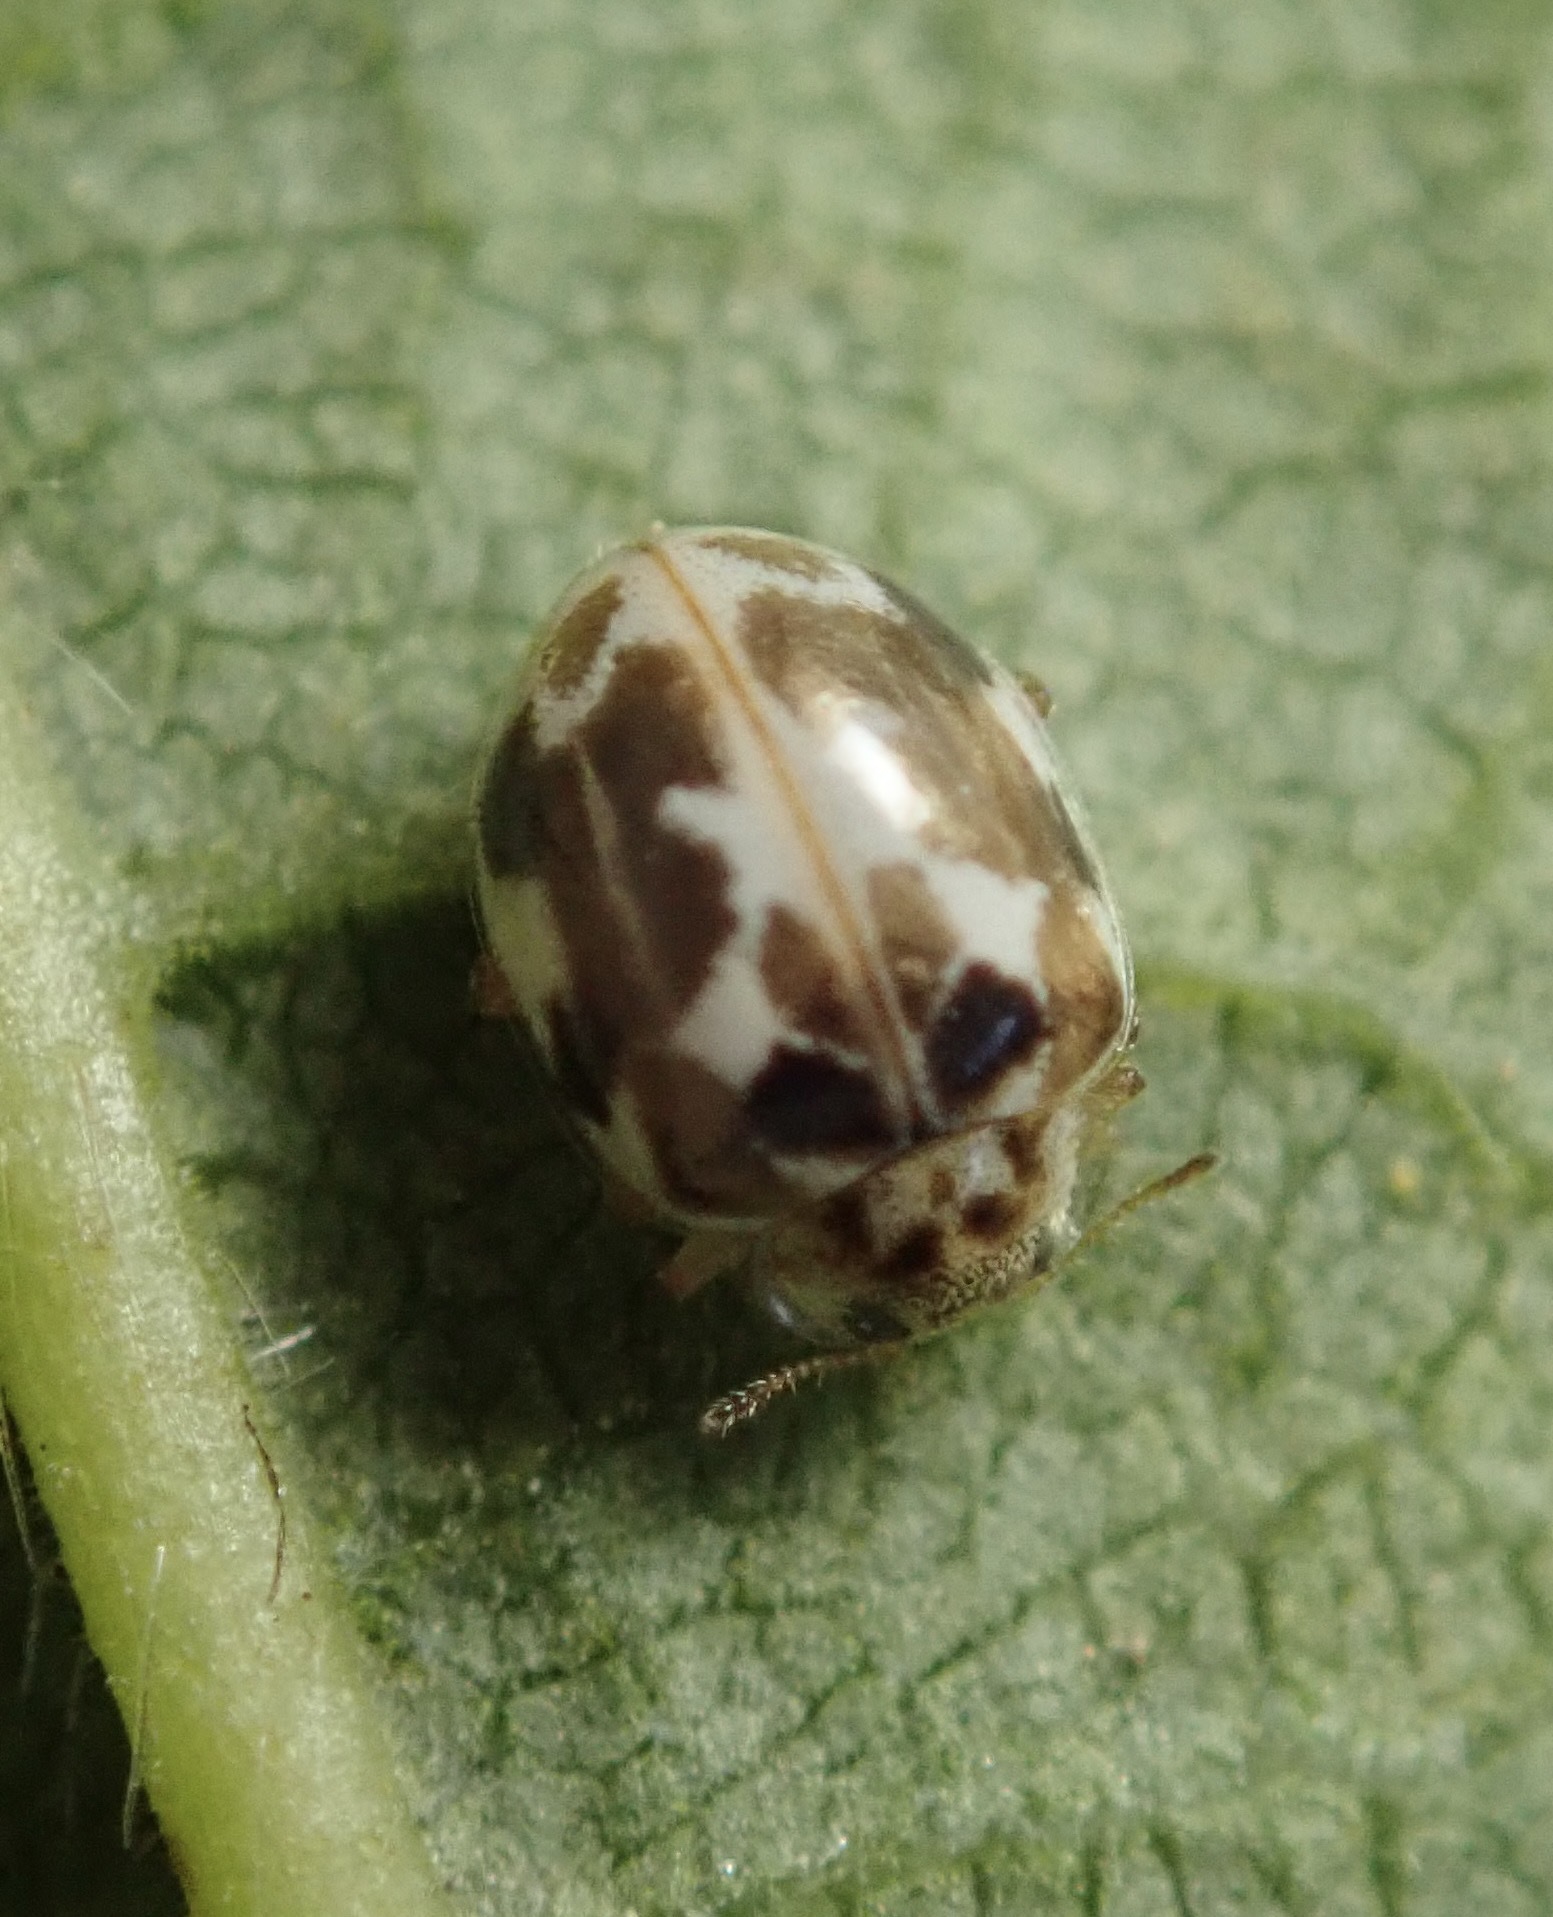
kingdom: Animalia
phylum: Arthropoda
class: Insecta
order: Coleoptera
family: Coccinellidae
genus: Psyllobora
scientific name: Psyllobora vigintimaculata
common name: Ladybird beetle
